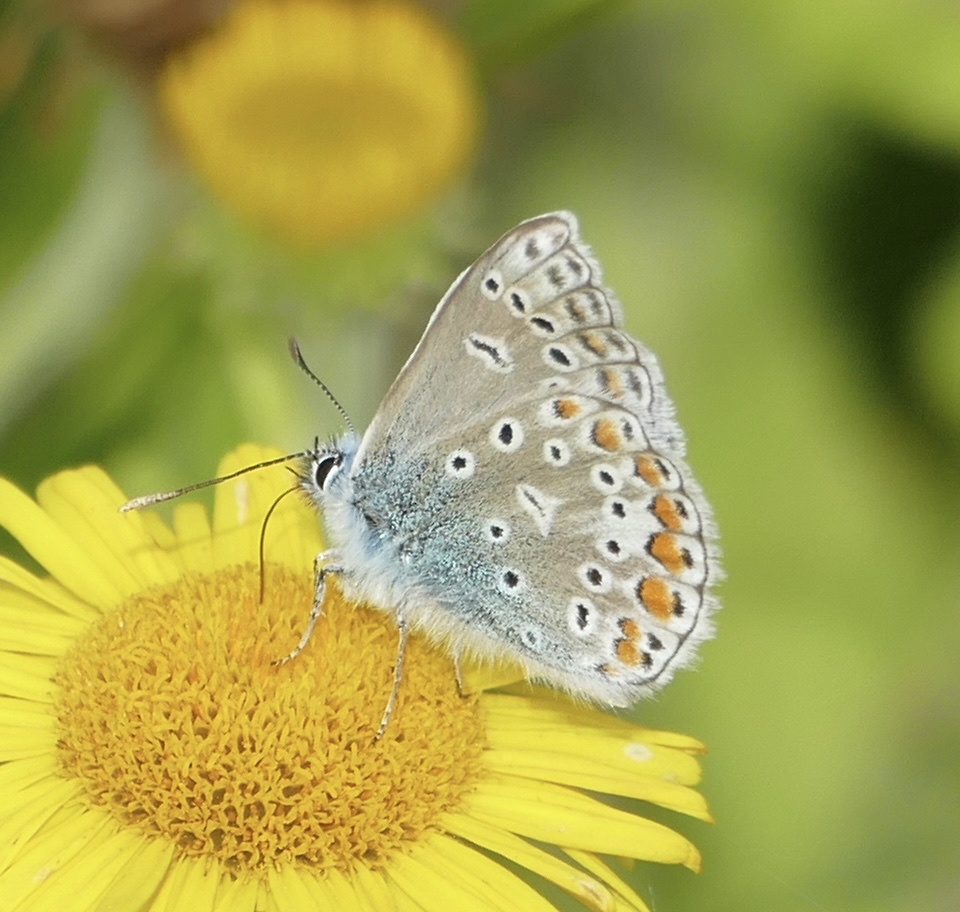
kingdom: Animalia
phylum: Arthropoda
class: Insecta
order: Lepidoptera
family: Lycaenidae
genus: Polyommatus
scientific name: Polyommatus icarus
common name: Common blue
